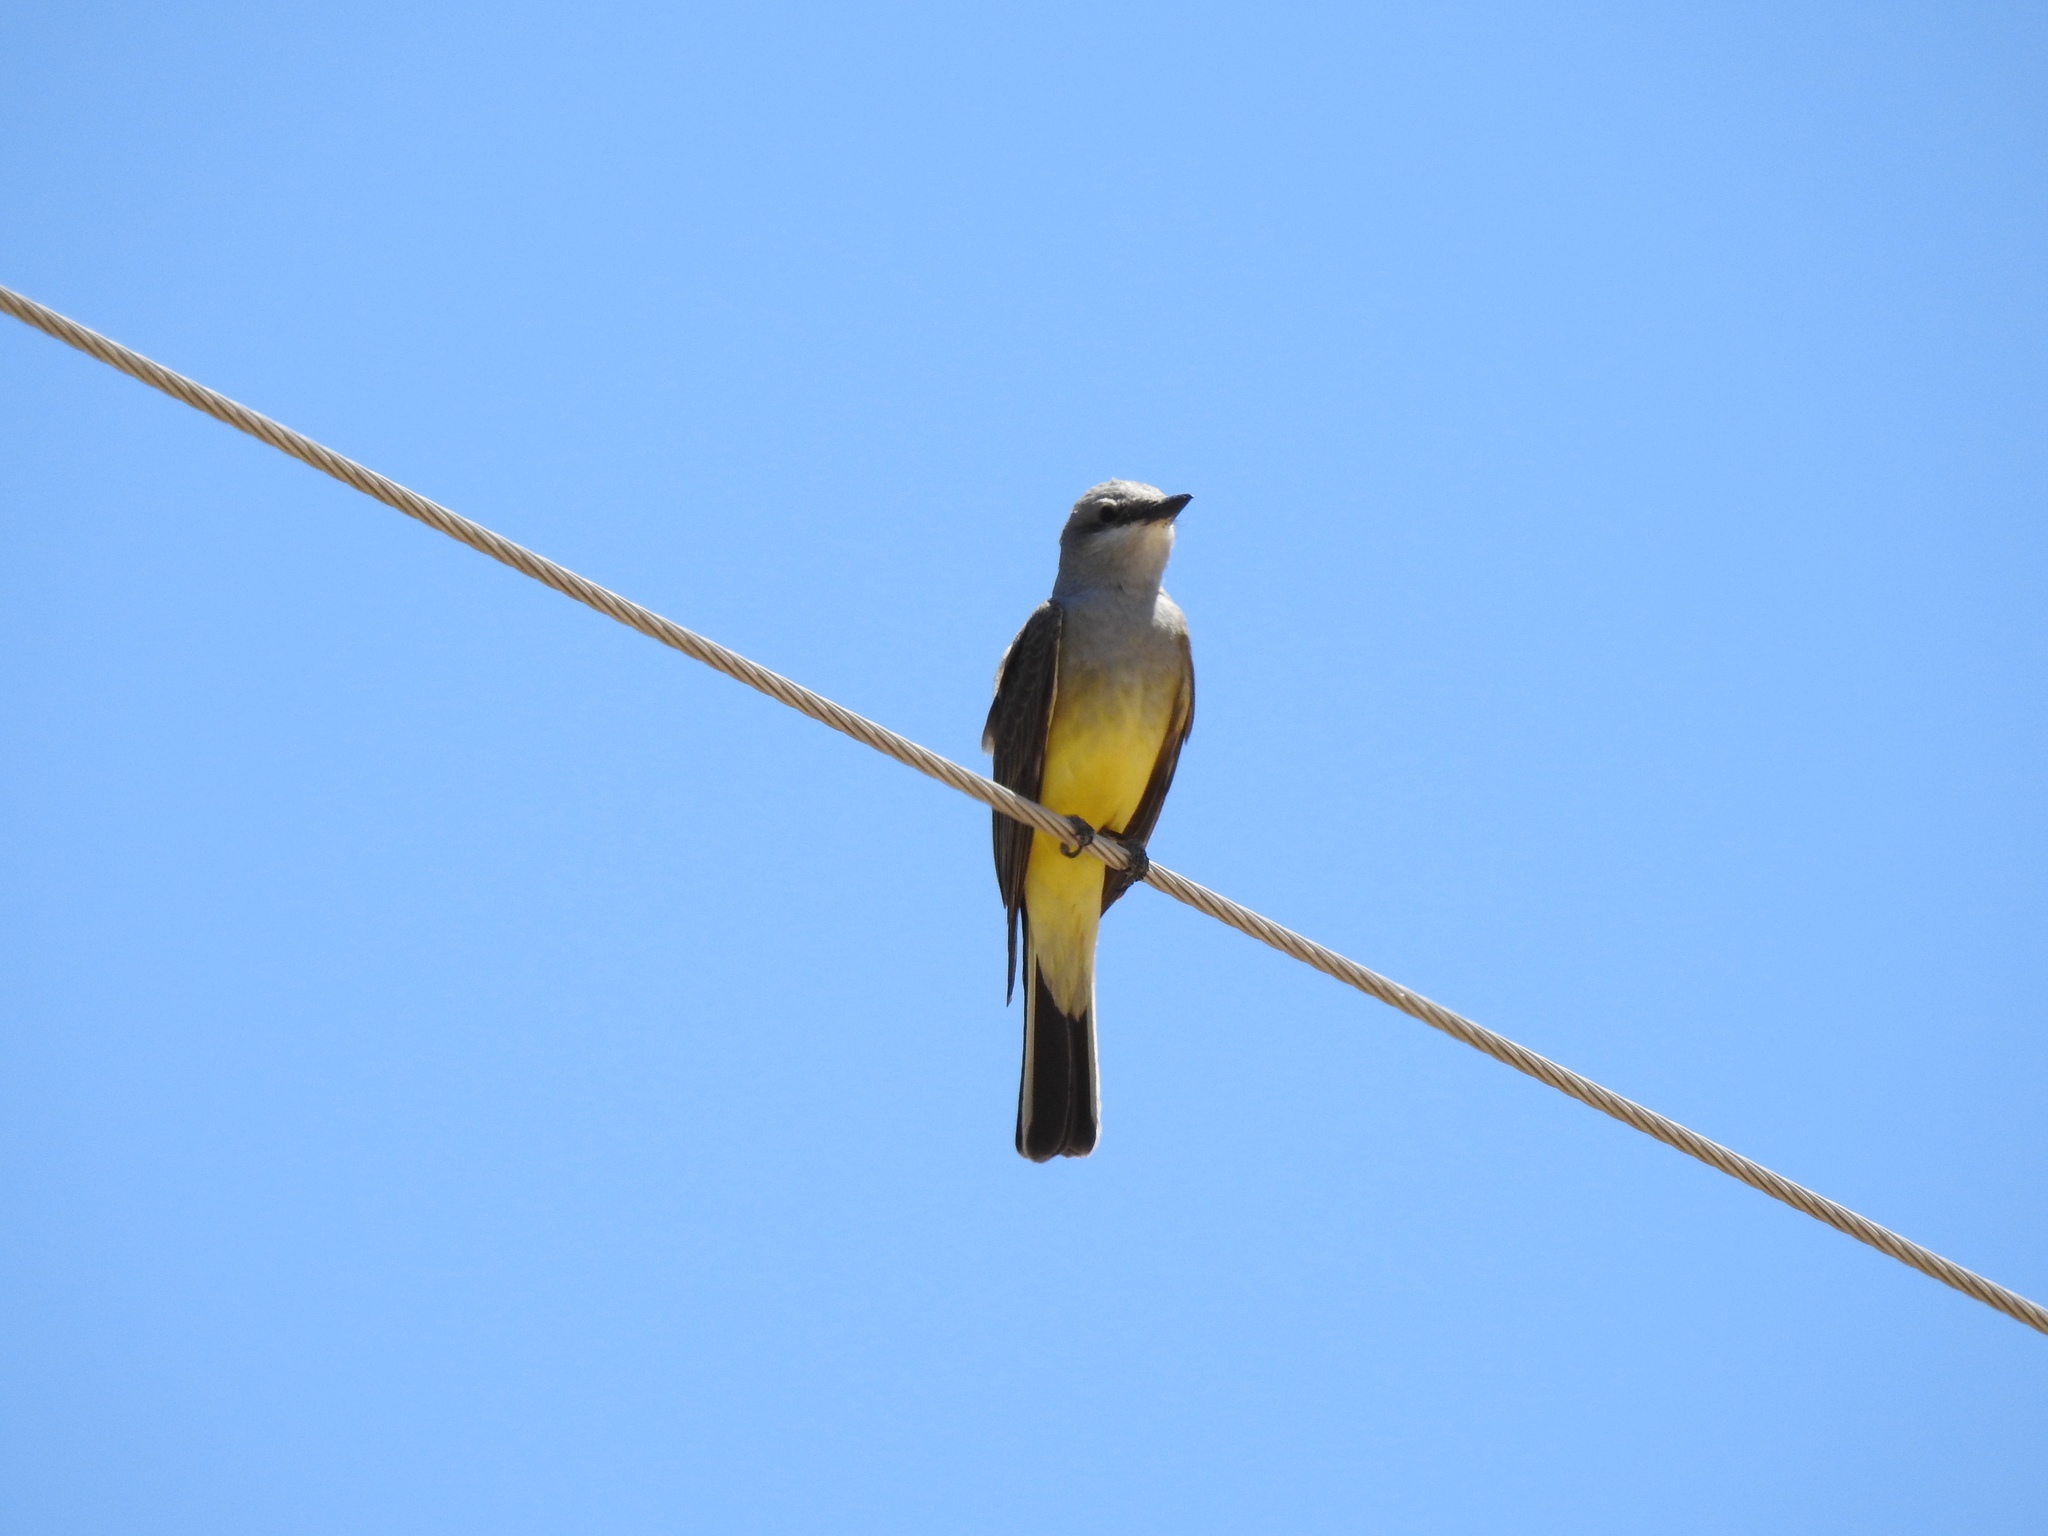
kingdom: Animalia
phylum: Chordata
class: Aves
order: Passeriformes
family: Tyrannidae
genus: Tyrannus
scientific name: Tyrannus verticalis
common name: Western kingbird
